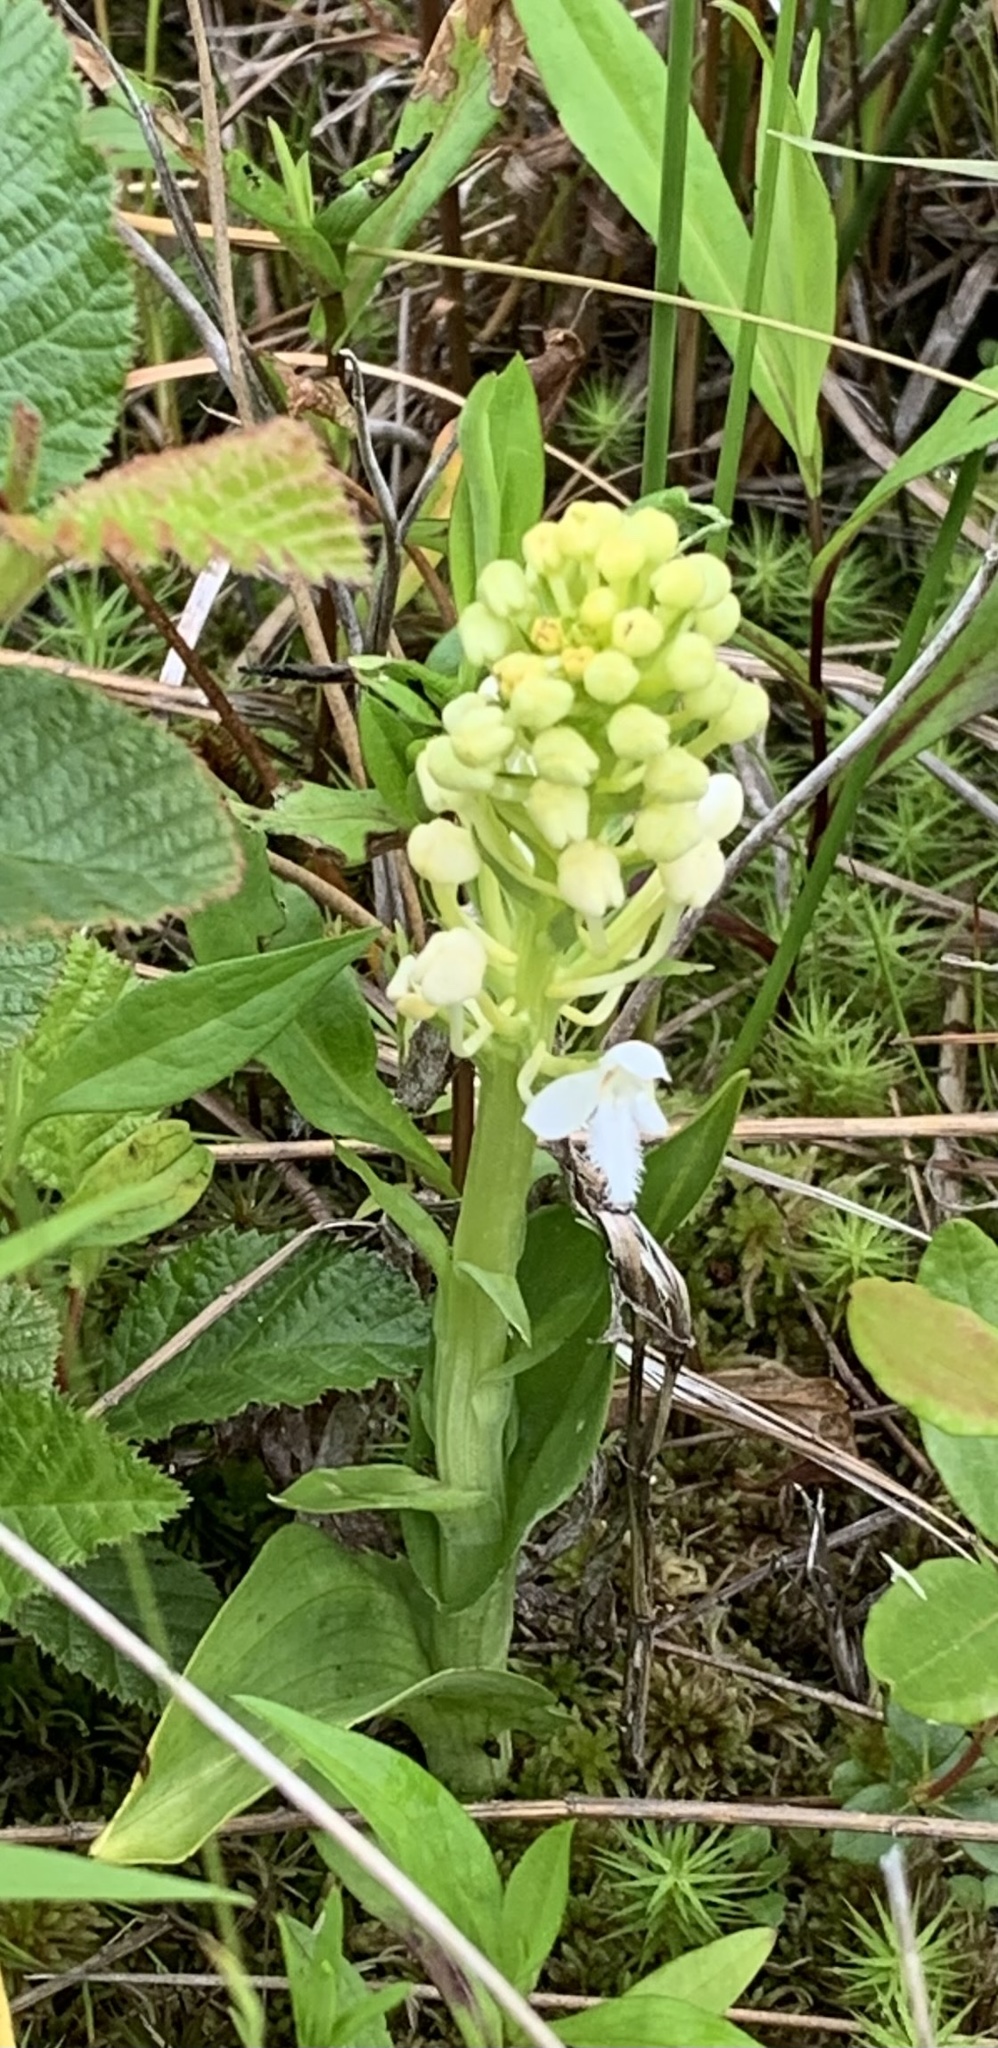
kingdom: Plantae
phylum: Tracheophyta
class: Liliopsida
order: Asparagales
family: Orchidaceae
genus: Platanthera
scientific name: Platanthera blephariglottis
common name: White fringed orchid
